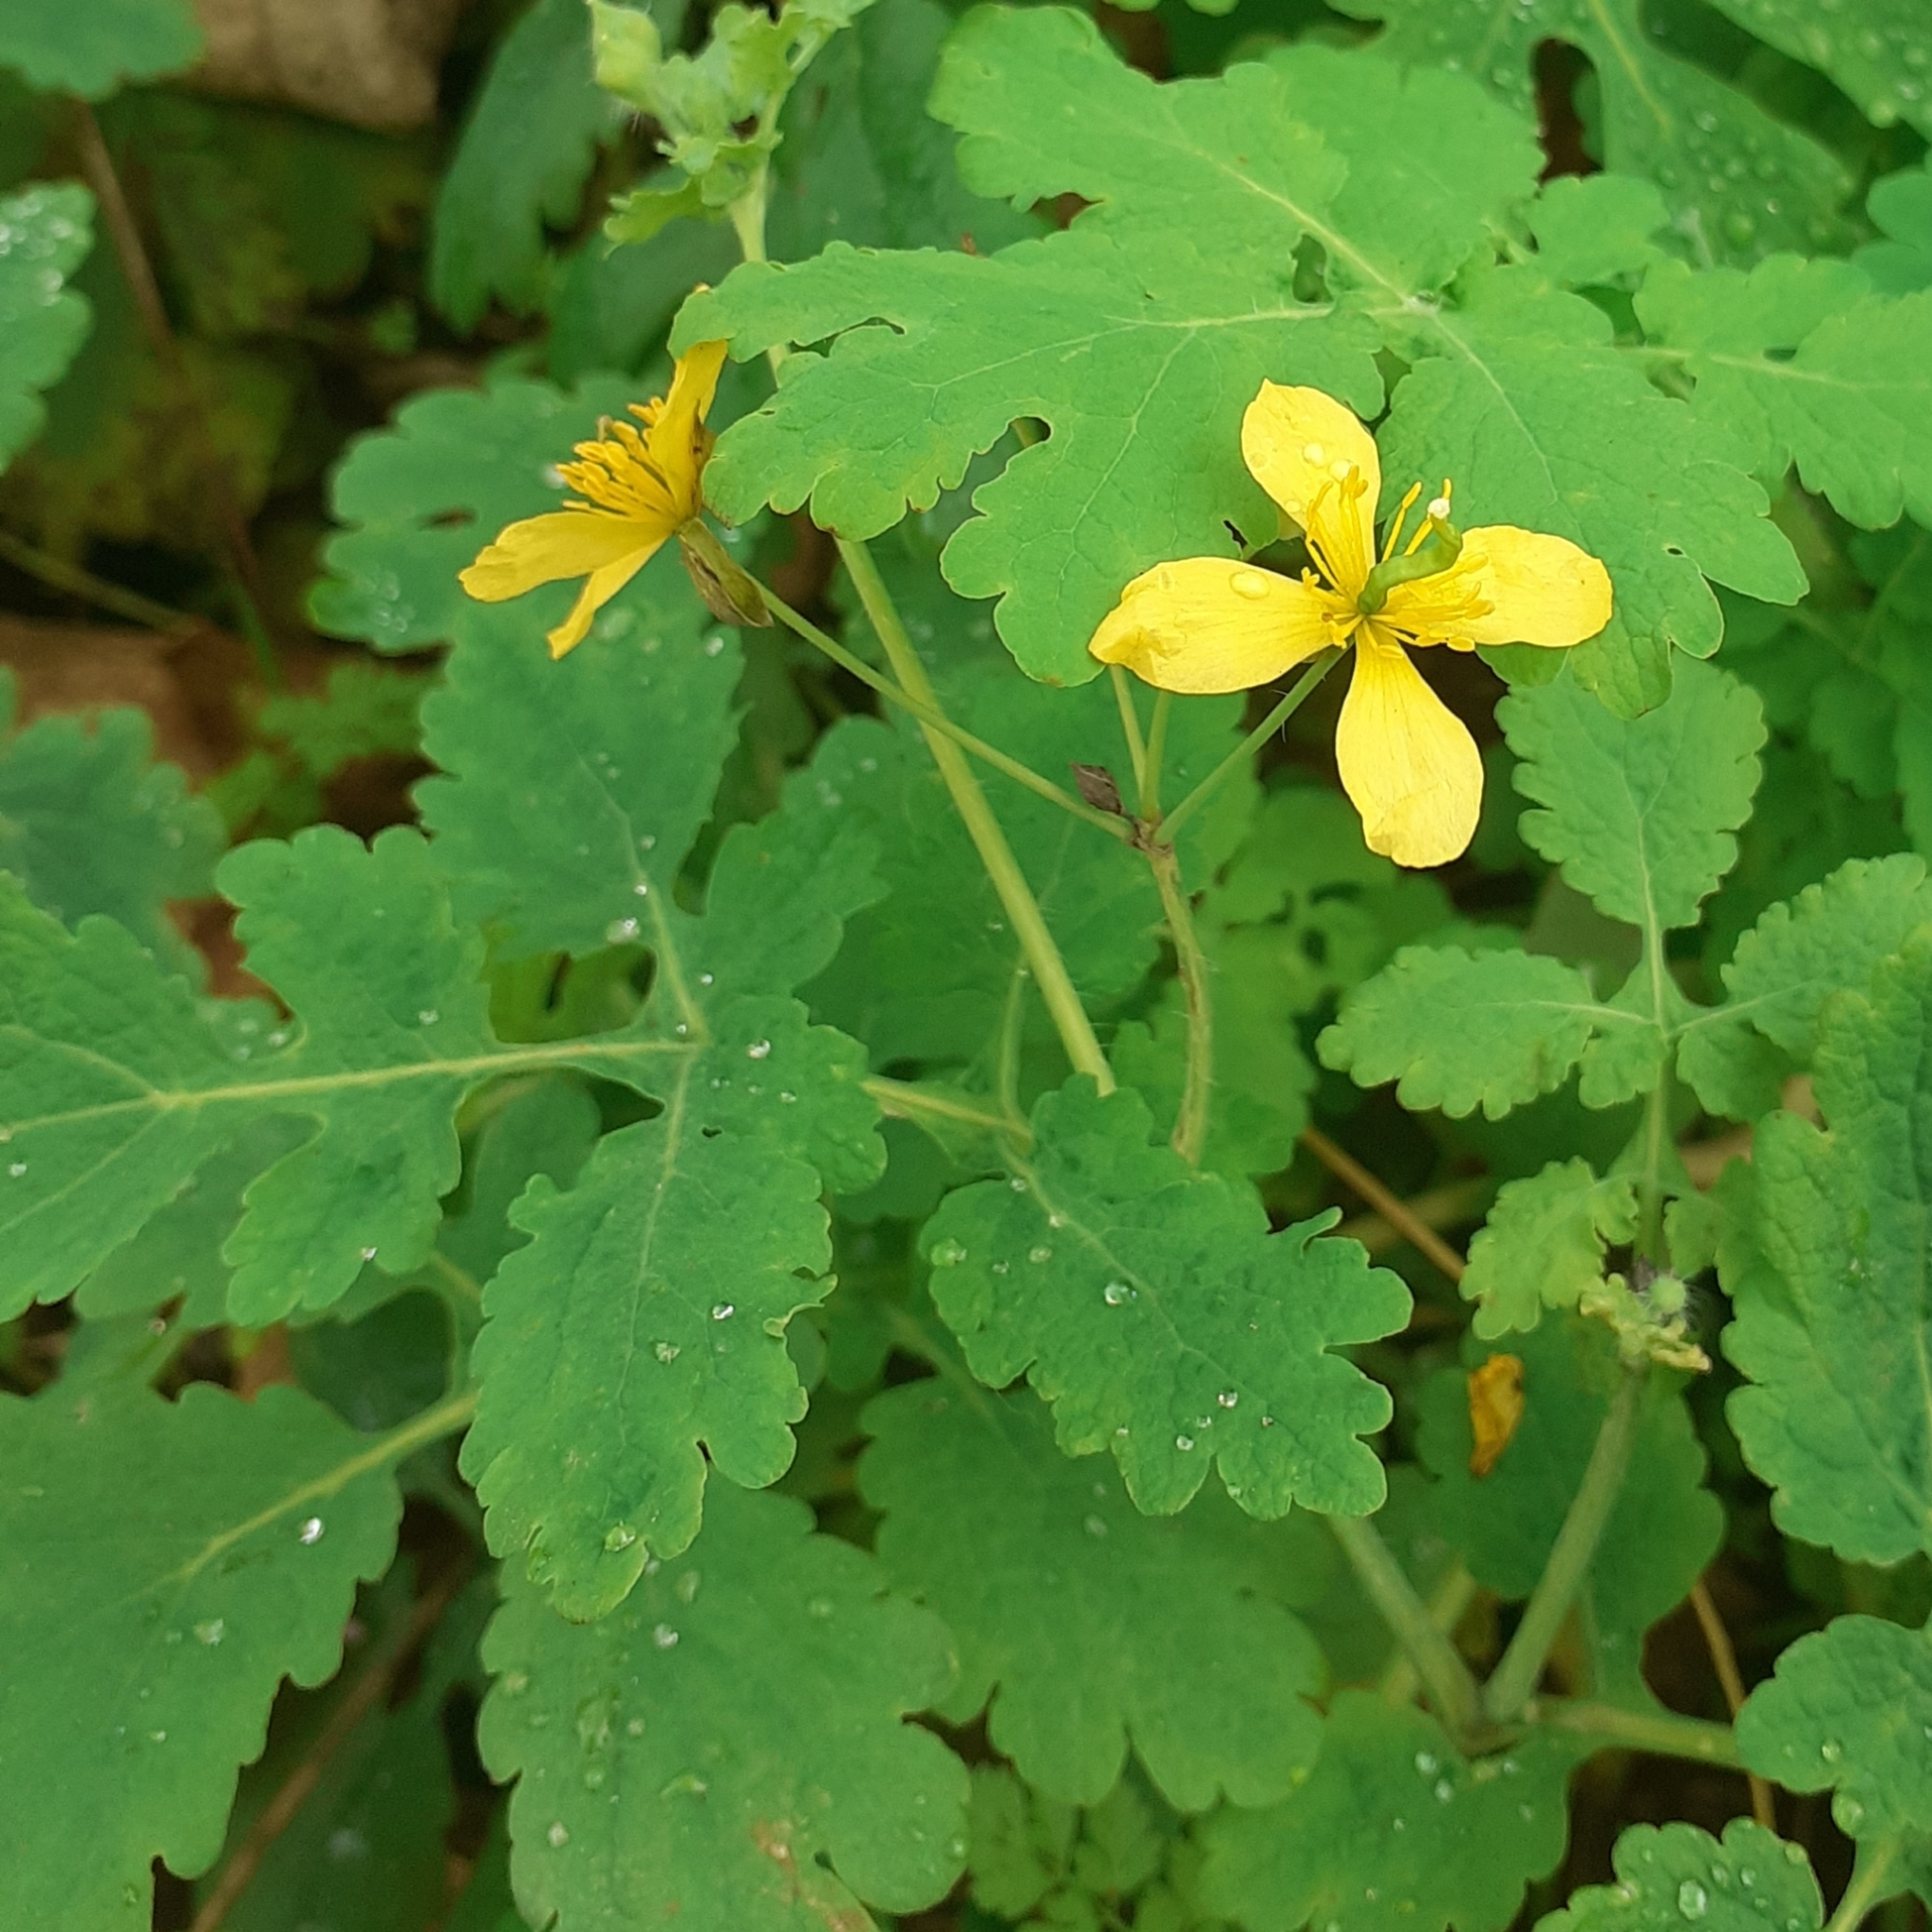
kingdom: Plantae
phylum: Tracheophyta
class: Magnoliopsida
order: Ranunculales
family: Papaveraceae
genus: Chelidonium
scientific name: Chelidonium majus
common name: Greater celandine
